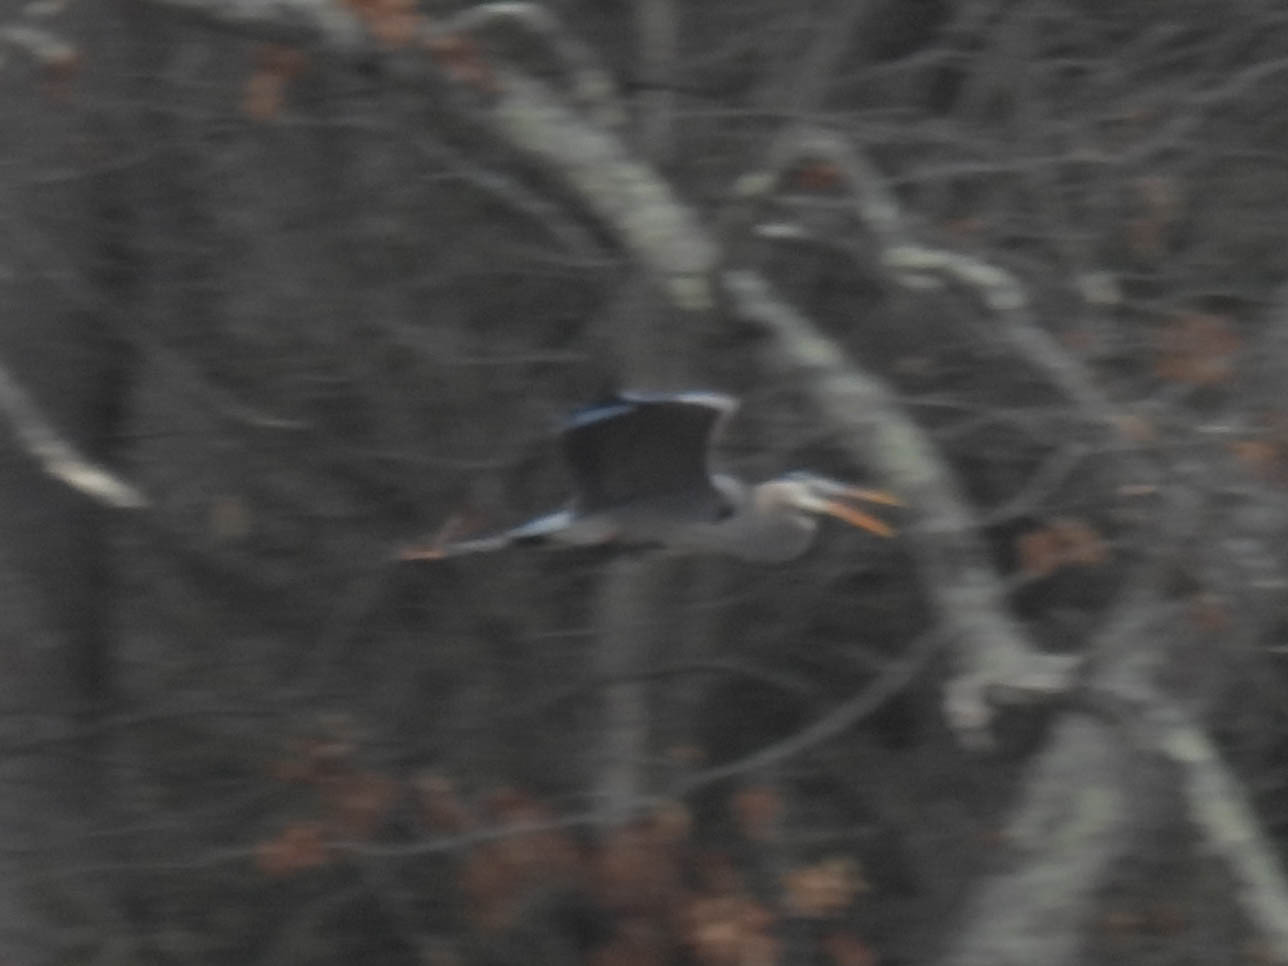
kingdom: Animalia
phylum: Chordata
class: Aves
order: Pelecaniformes
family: Ardeidae
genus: Ardea
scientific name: Ardea herodias
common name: Great blue heron
